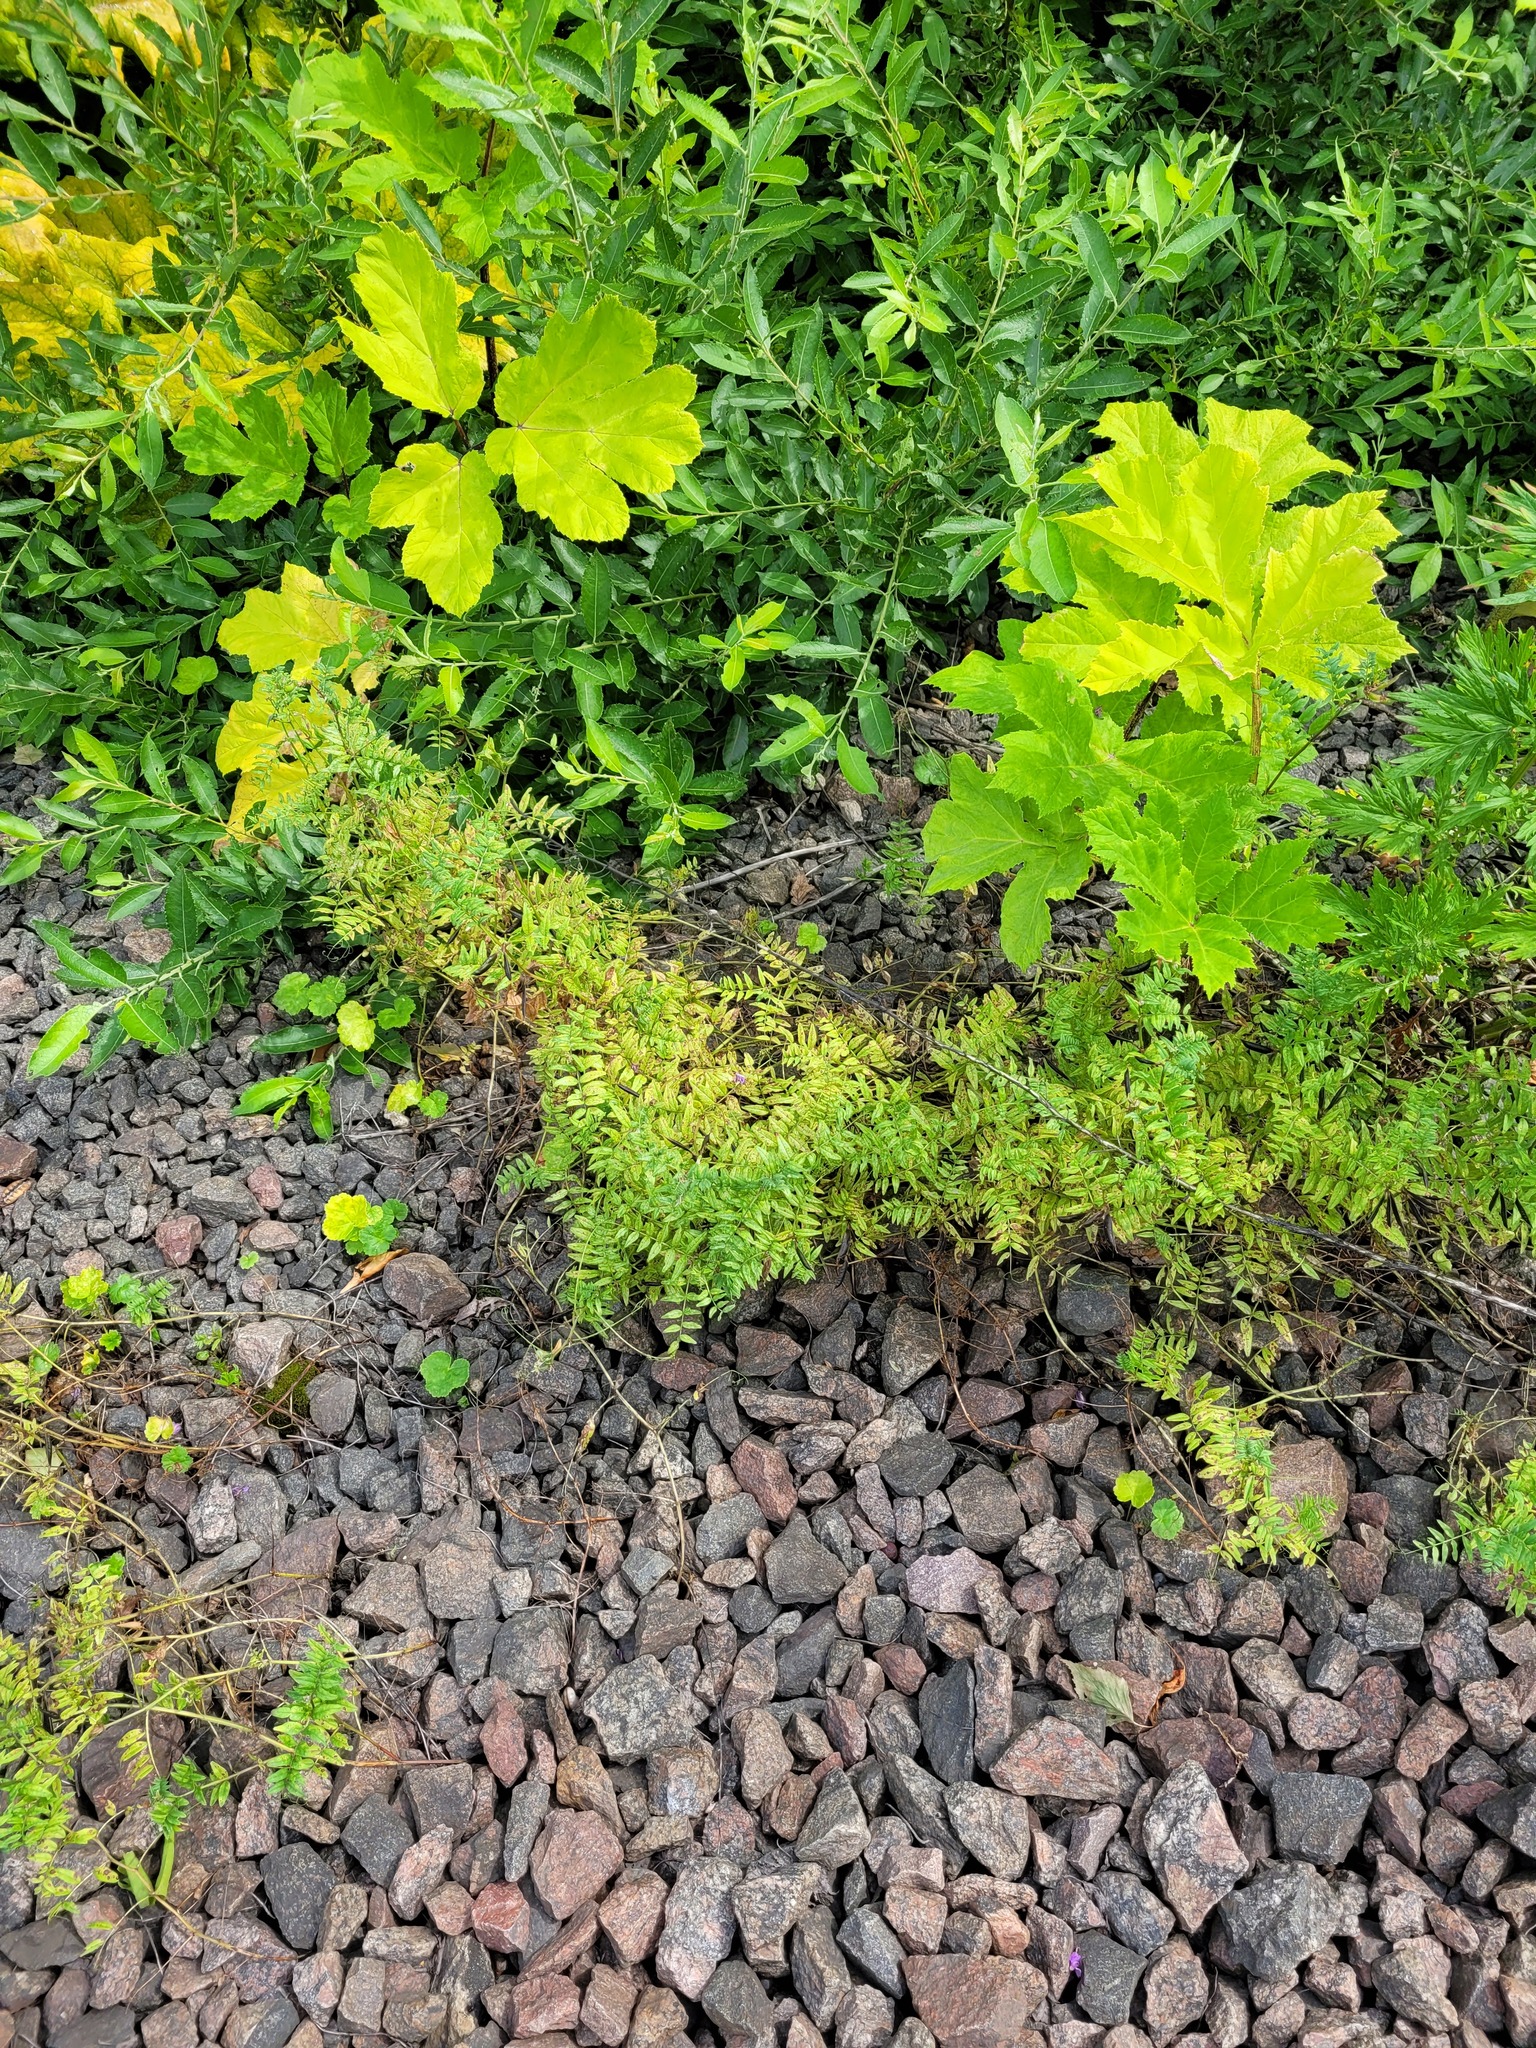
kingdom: Plantae
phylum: Tracheophyta
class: Magnoliopsida
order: Fabales
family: Fabaceae
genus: Vicia
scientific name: Vicia sepium
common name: Bush vetch
